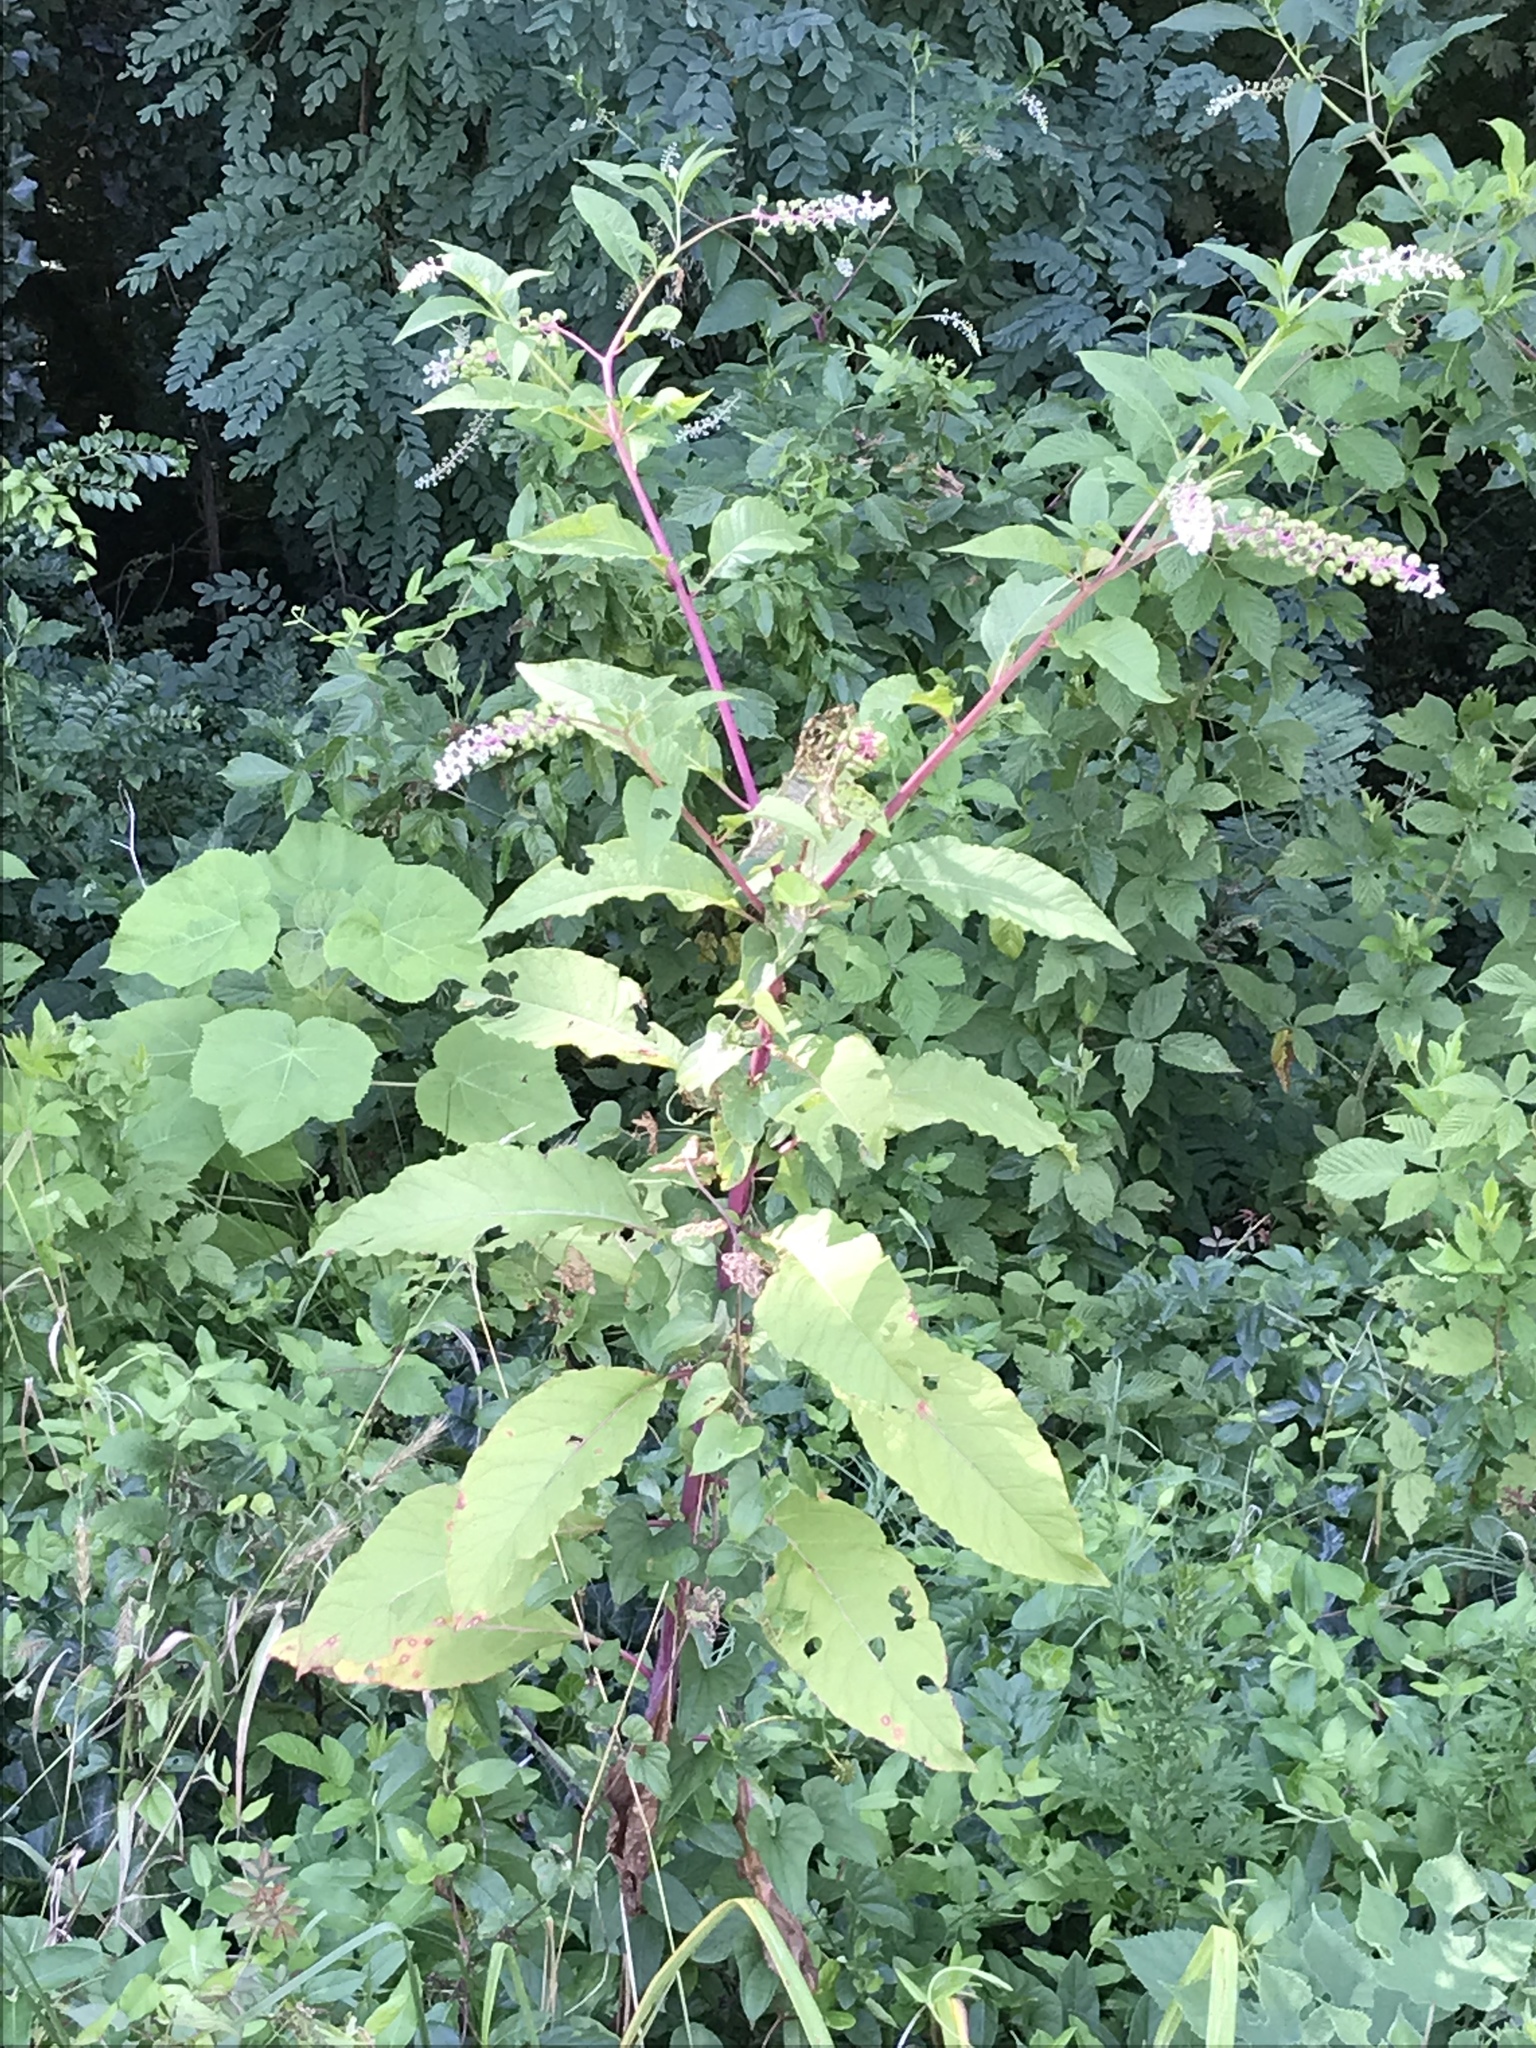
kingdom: Plantae
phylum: Tracheophyta
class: Magnoliopsida
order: Caryophyllales
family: Phytolaccaceae
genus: Phytolacca
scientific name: Phytolacca americana
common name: American pokeweed
